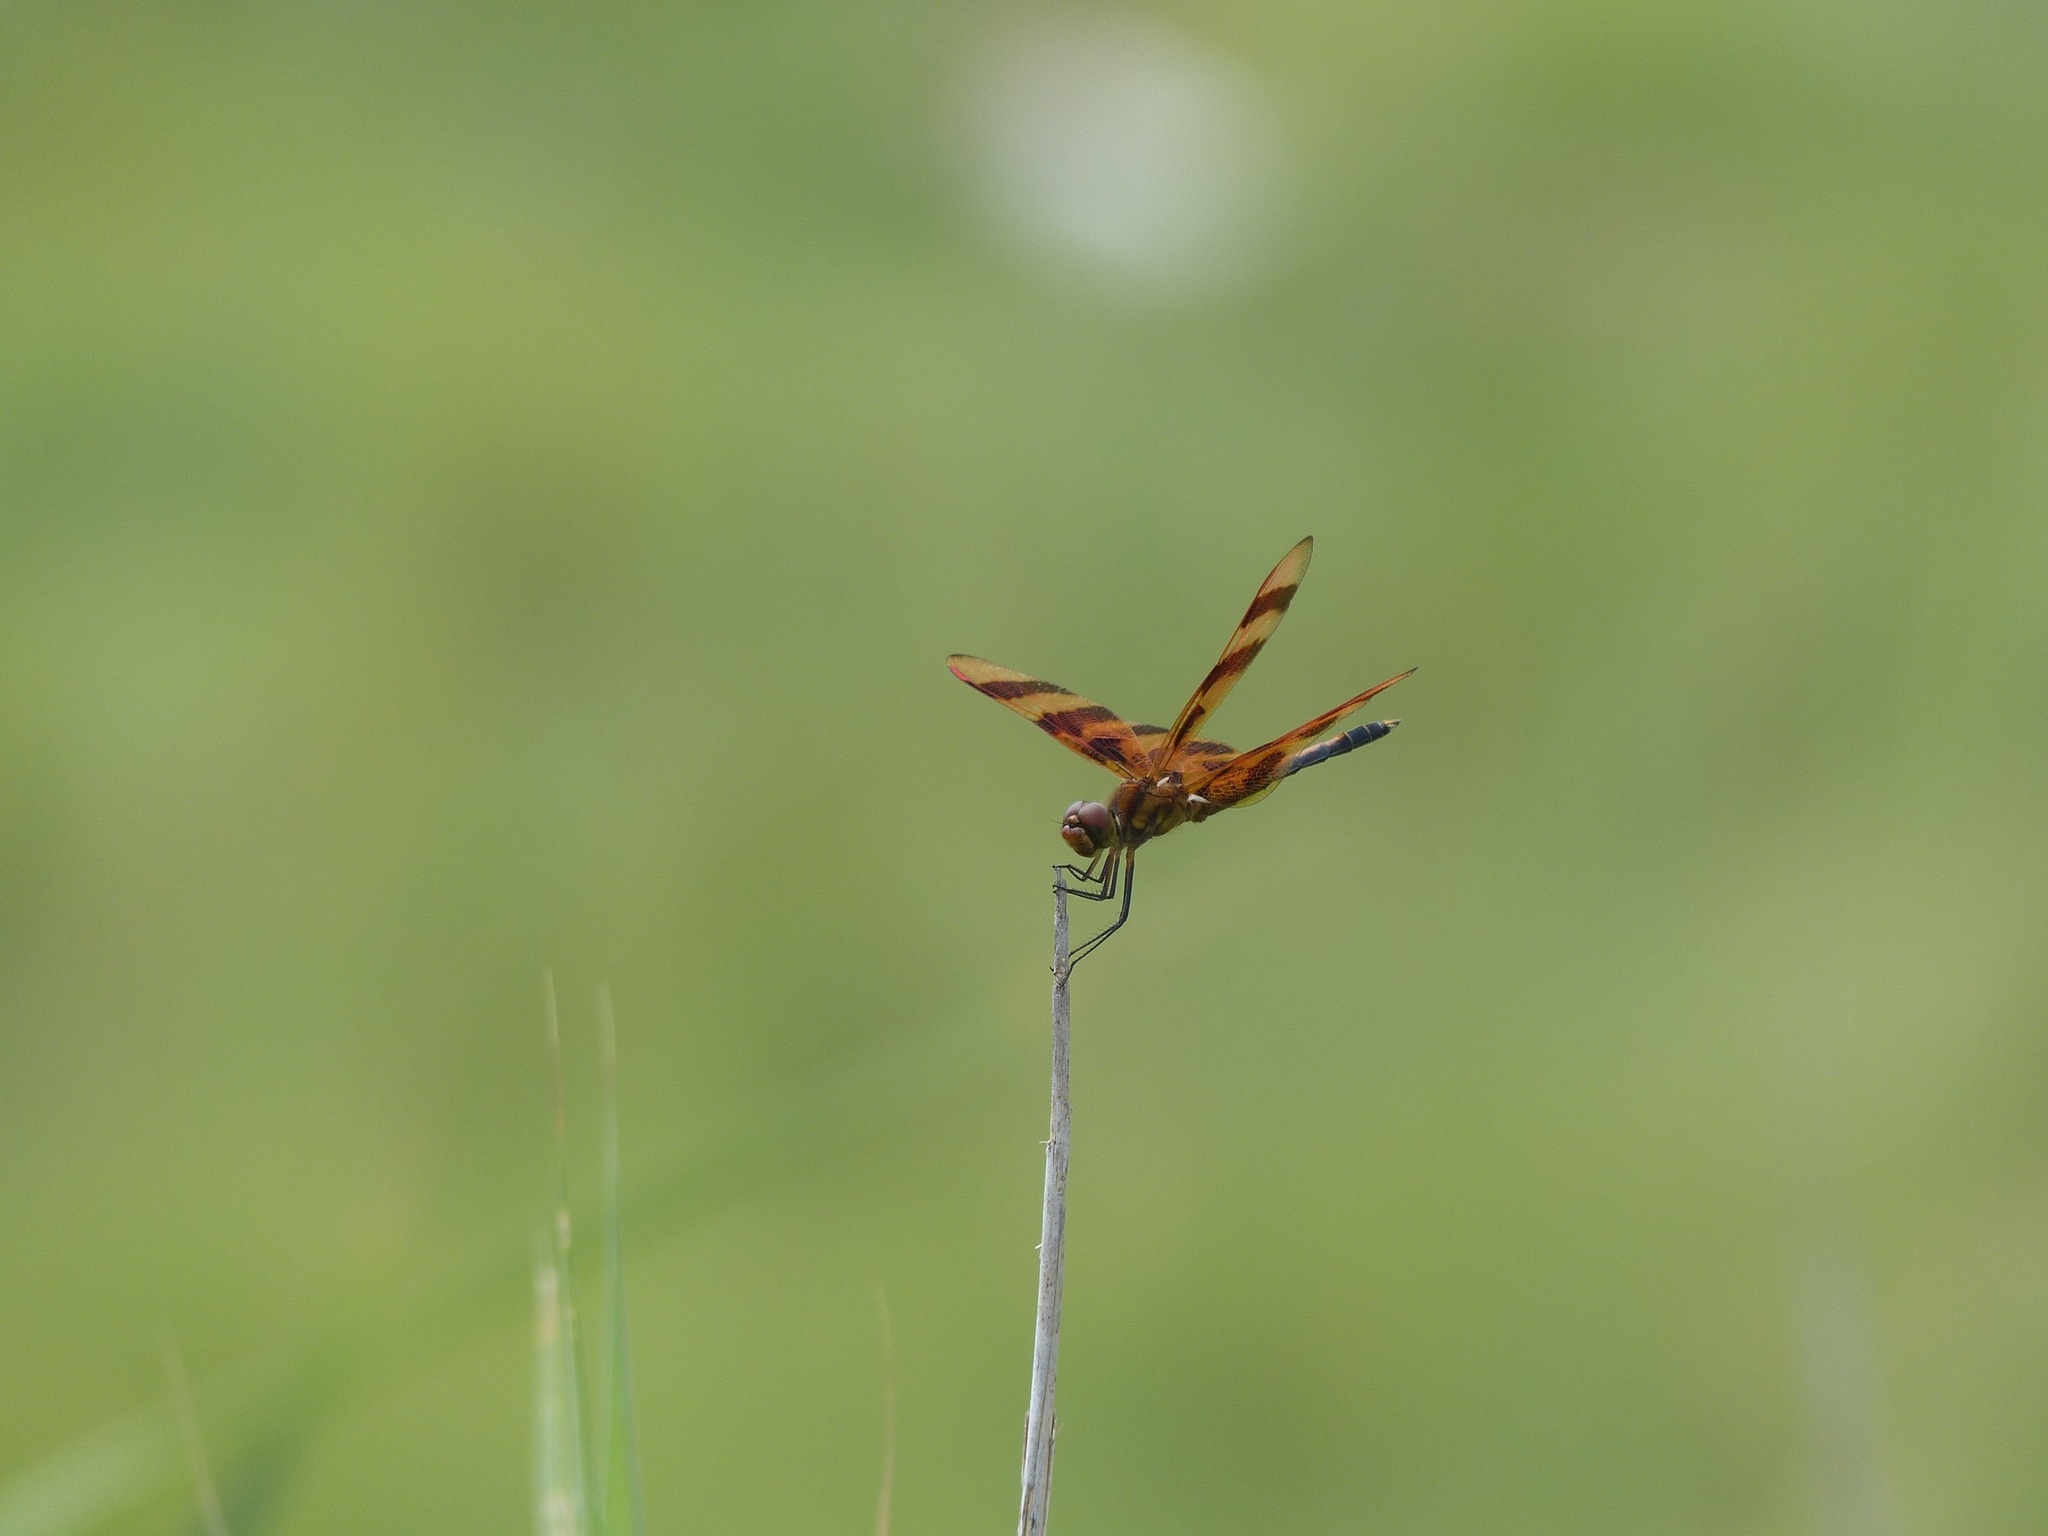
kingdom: Animalia
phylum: Arthropoda
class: Insecta
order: Odonata
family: Libellulidae
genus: Celithemis
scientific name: Celithemis eponina
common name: Halloween pennant
